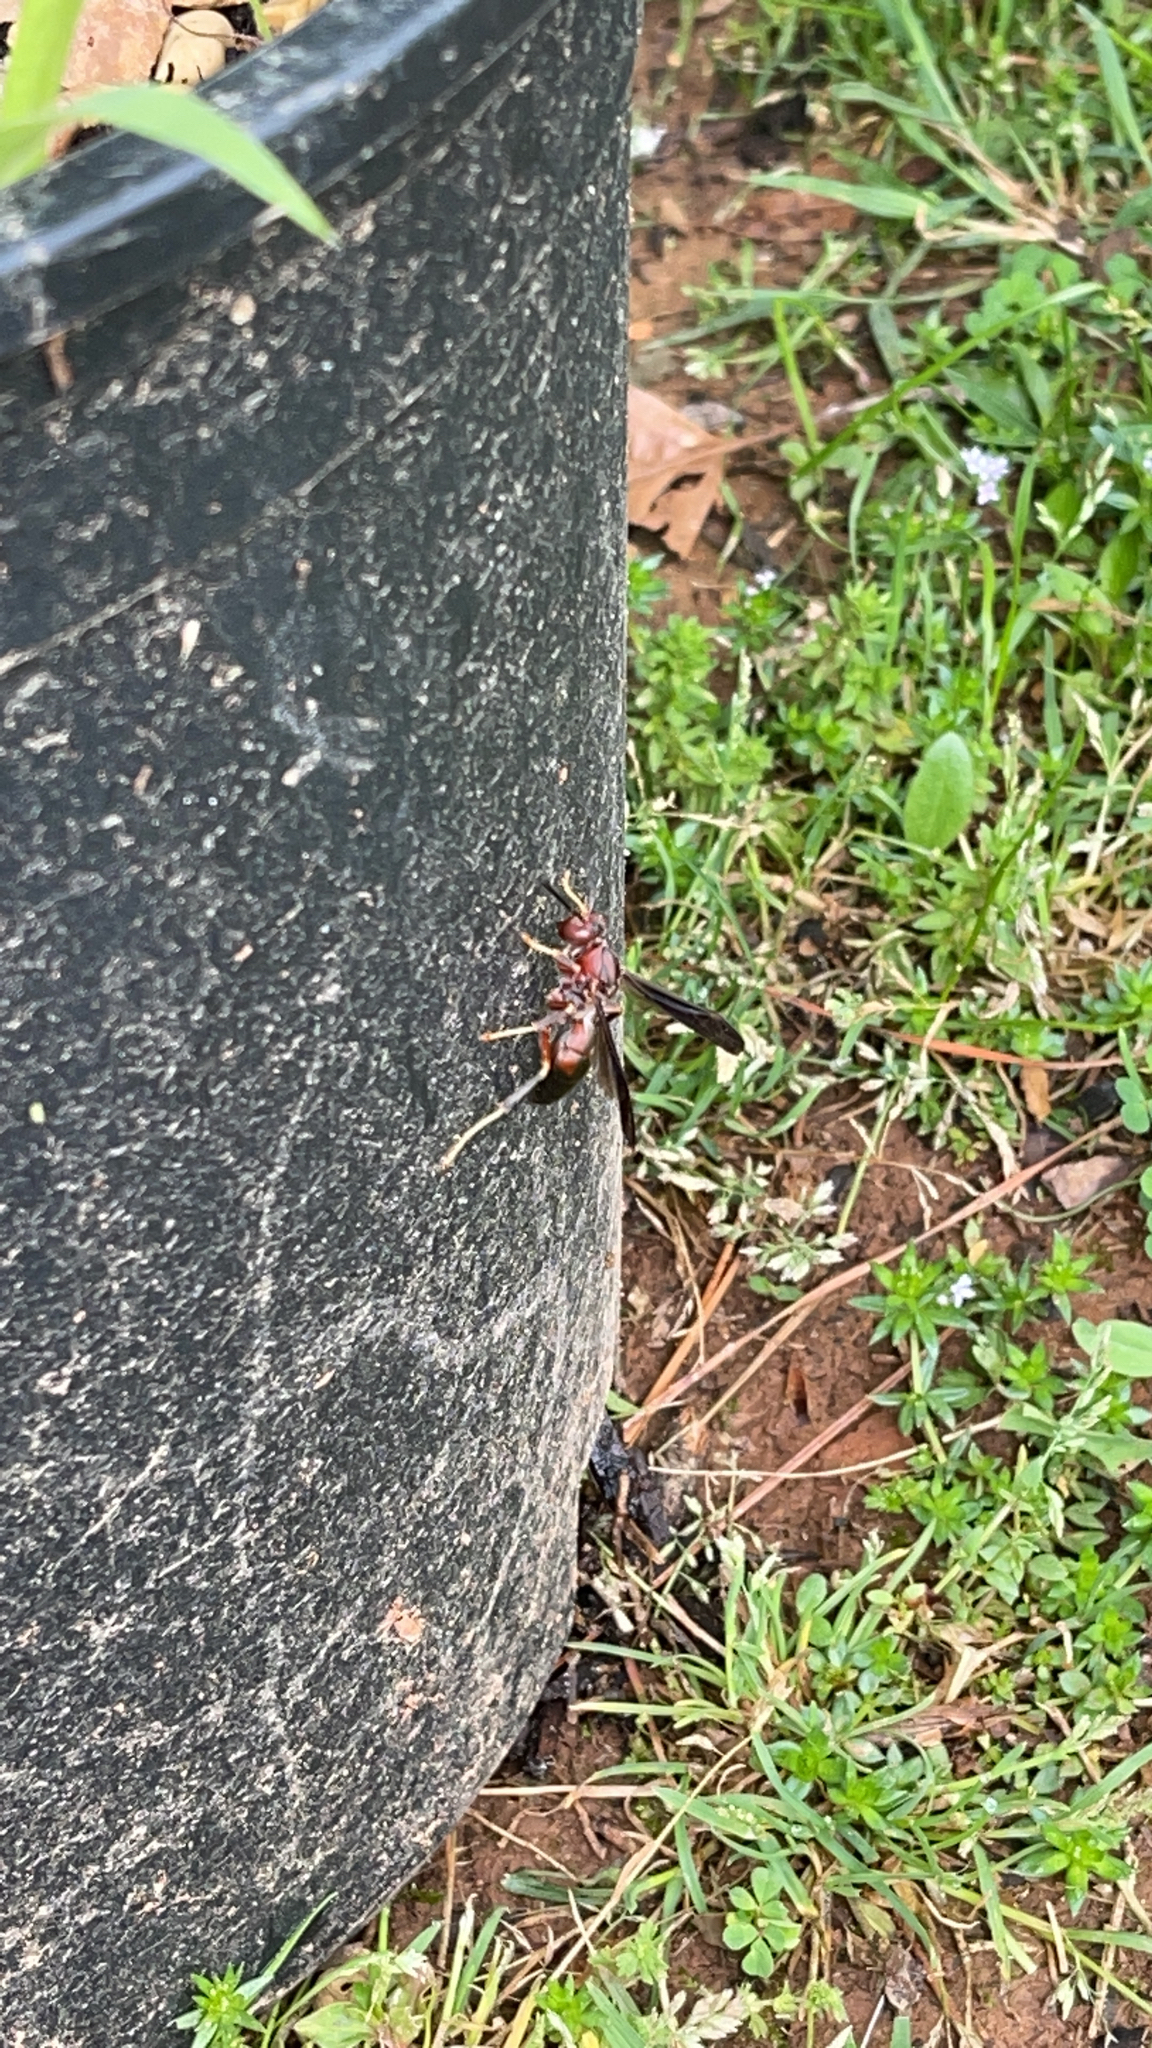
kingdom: Animalia
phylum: Arthropoda
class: Insecta
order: Hymenoptera
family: Eumenidae
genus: Polistes
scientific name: Polistes metricus
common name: Metric paper wasp
